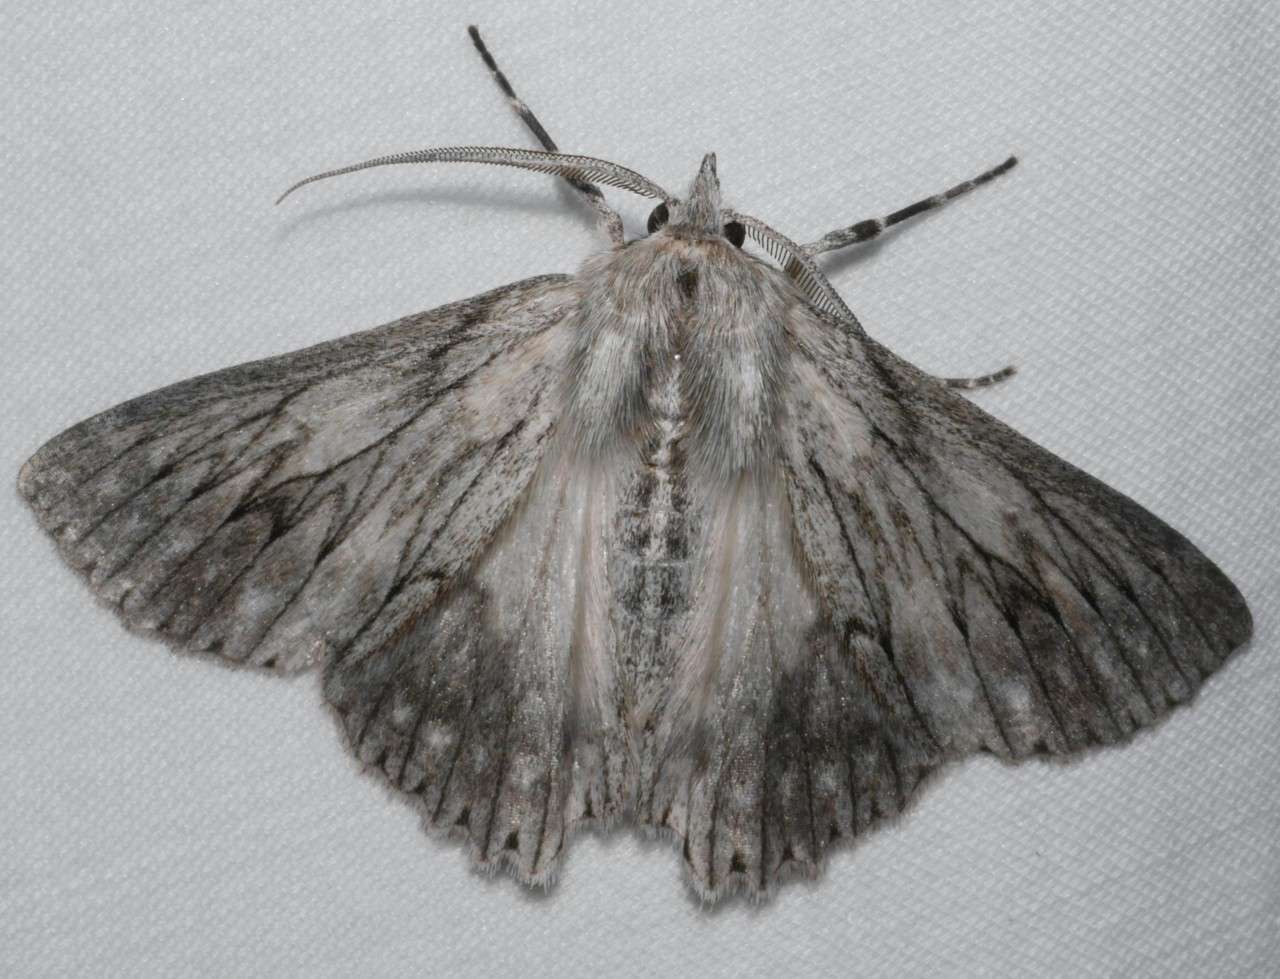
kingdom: Animalia
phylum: Arthropoda
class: Insecta
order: Lepidoptera
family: Geometridae
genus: Cyneoterpna
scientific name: Cyneoterpna wilsoni
